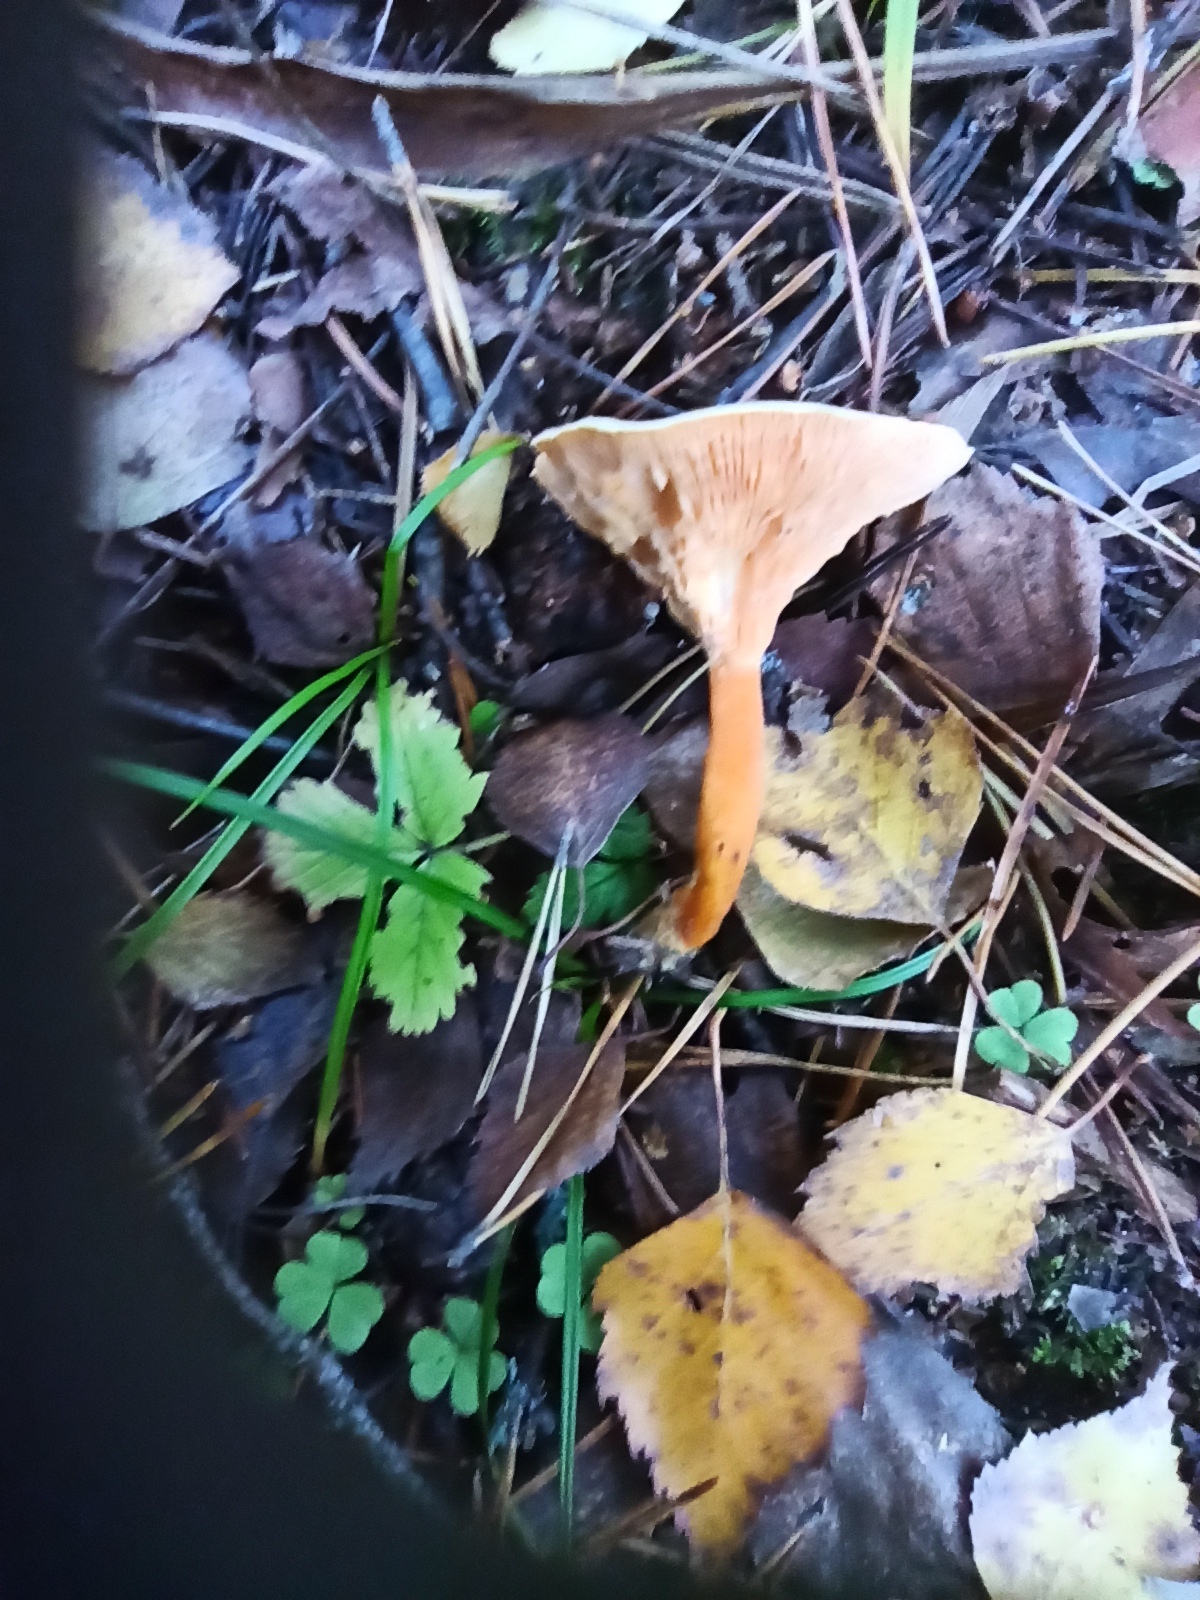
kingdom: Fungi
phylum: Basidiomycota
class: Agaricomycetes
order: Boletales
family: Hygrophoropsidaceae
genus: Hygrophoropsis
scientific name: Hygrophoropsis aurantiaca
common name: False chanterelle
